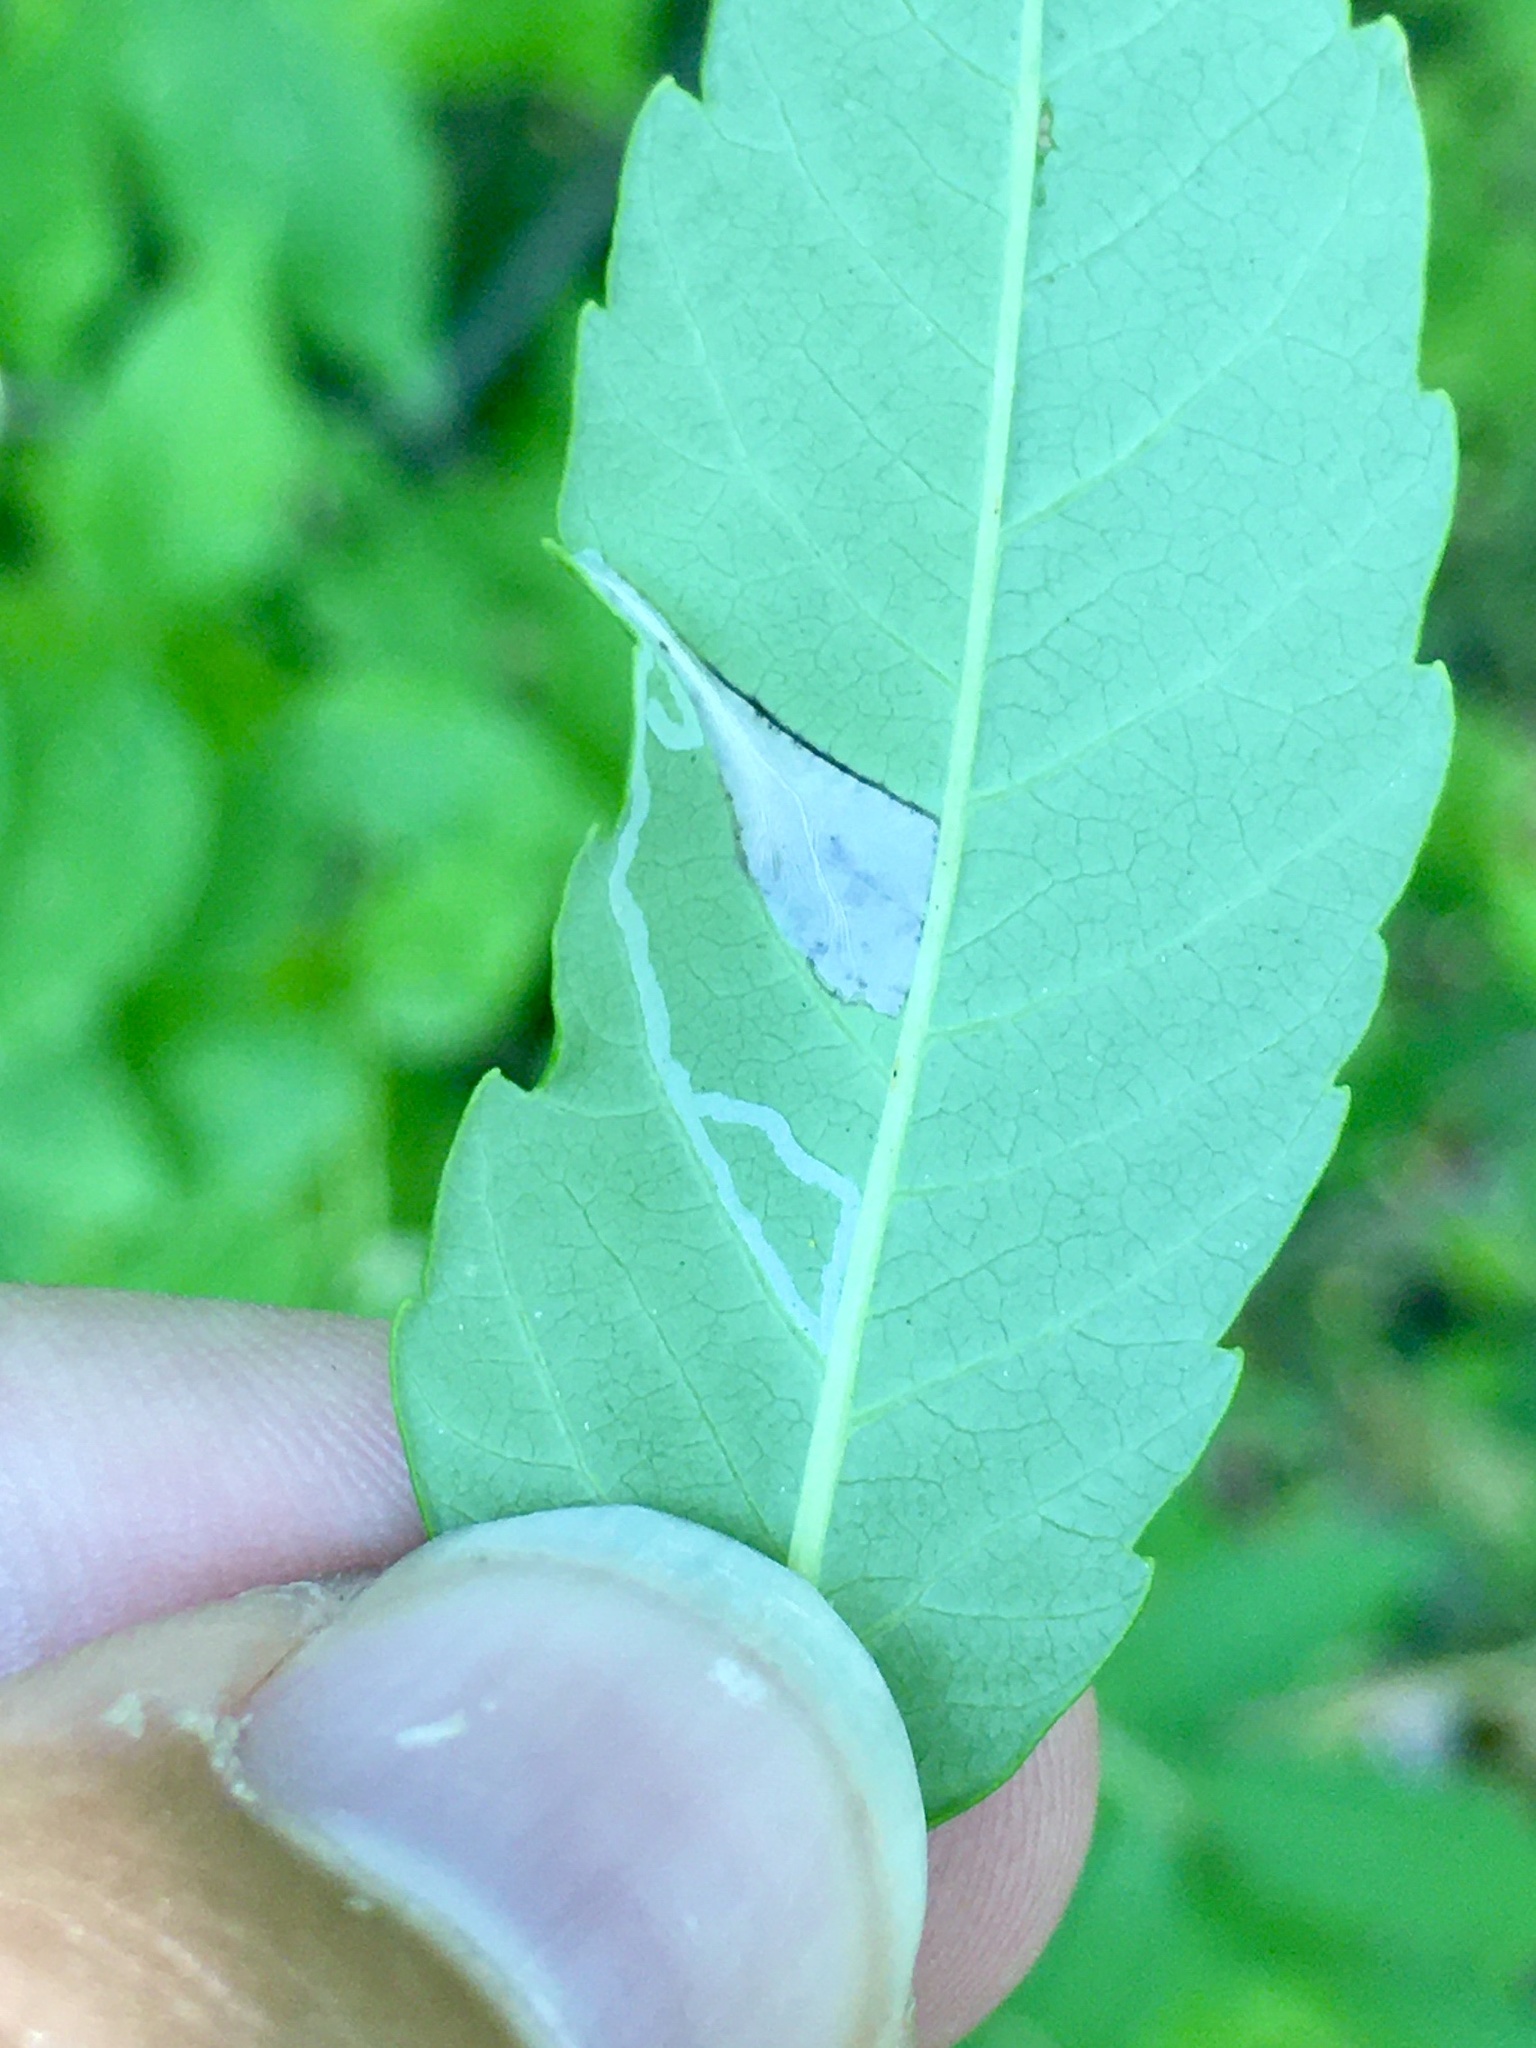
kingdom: Animalia
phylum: Arthropoda
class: Insecta
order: Lepidoptera
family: Gracillariidae
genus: Caloptilia
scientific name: Caloptilia rhoifoliella
